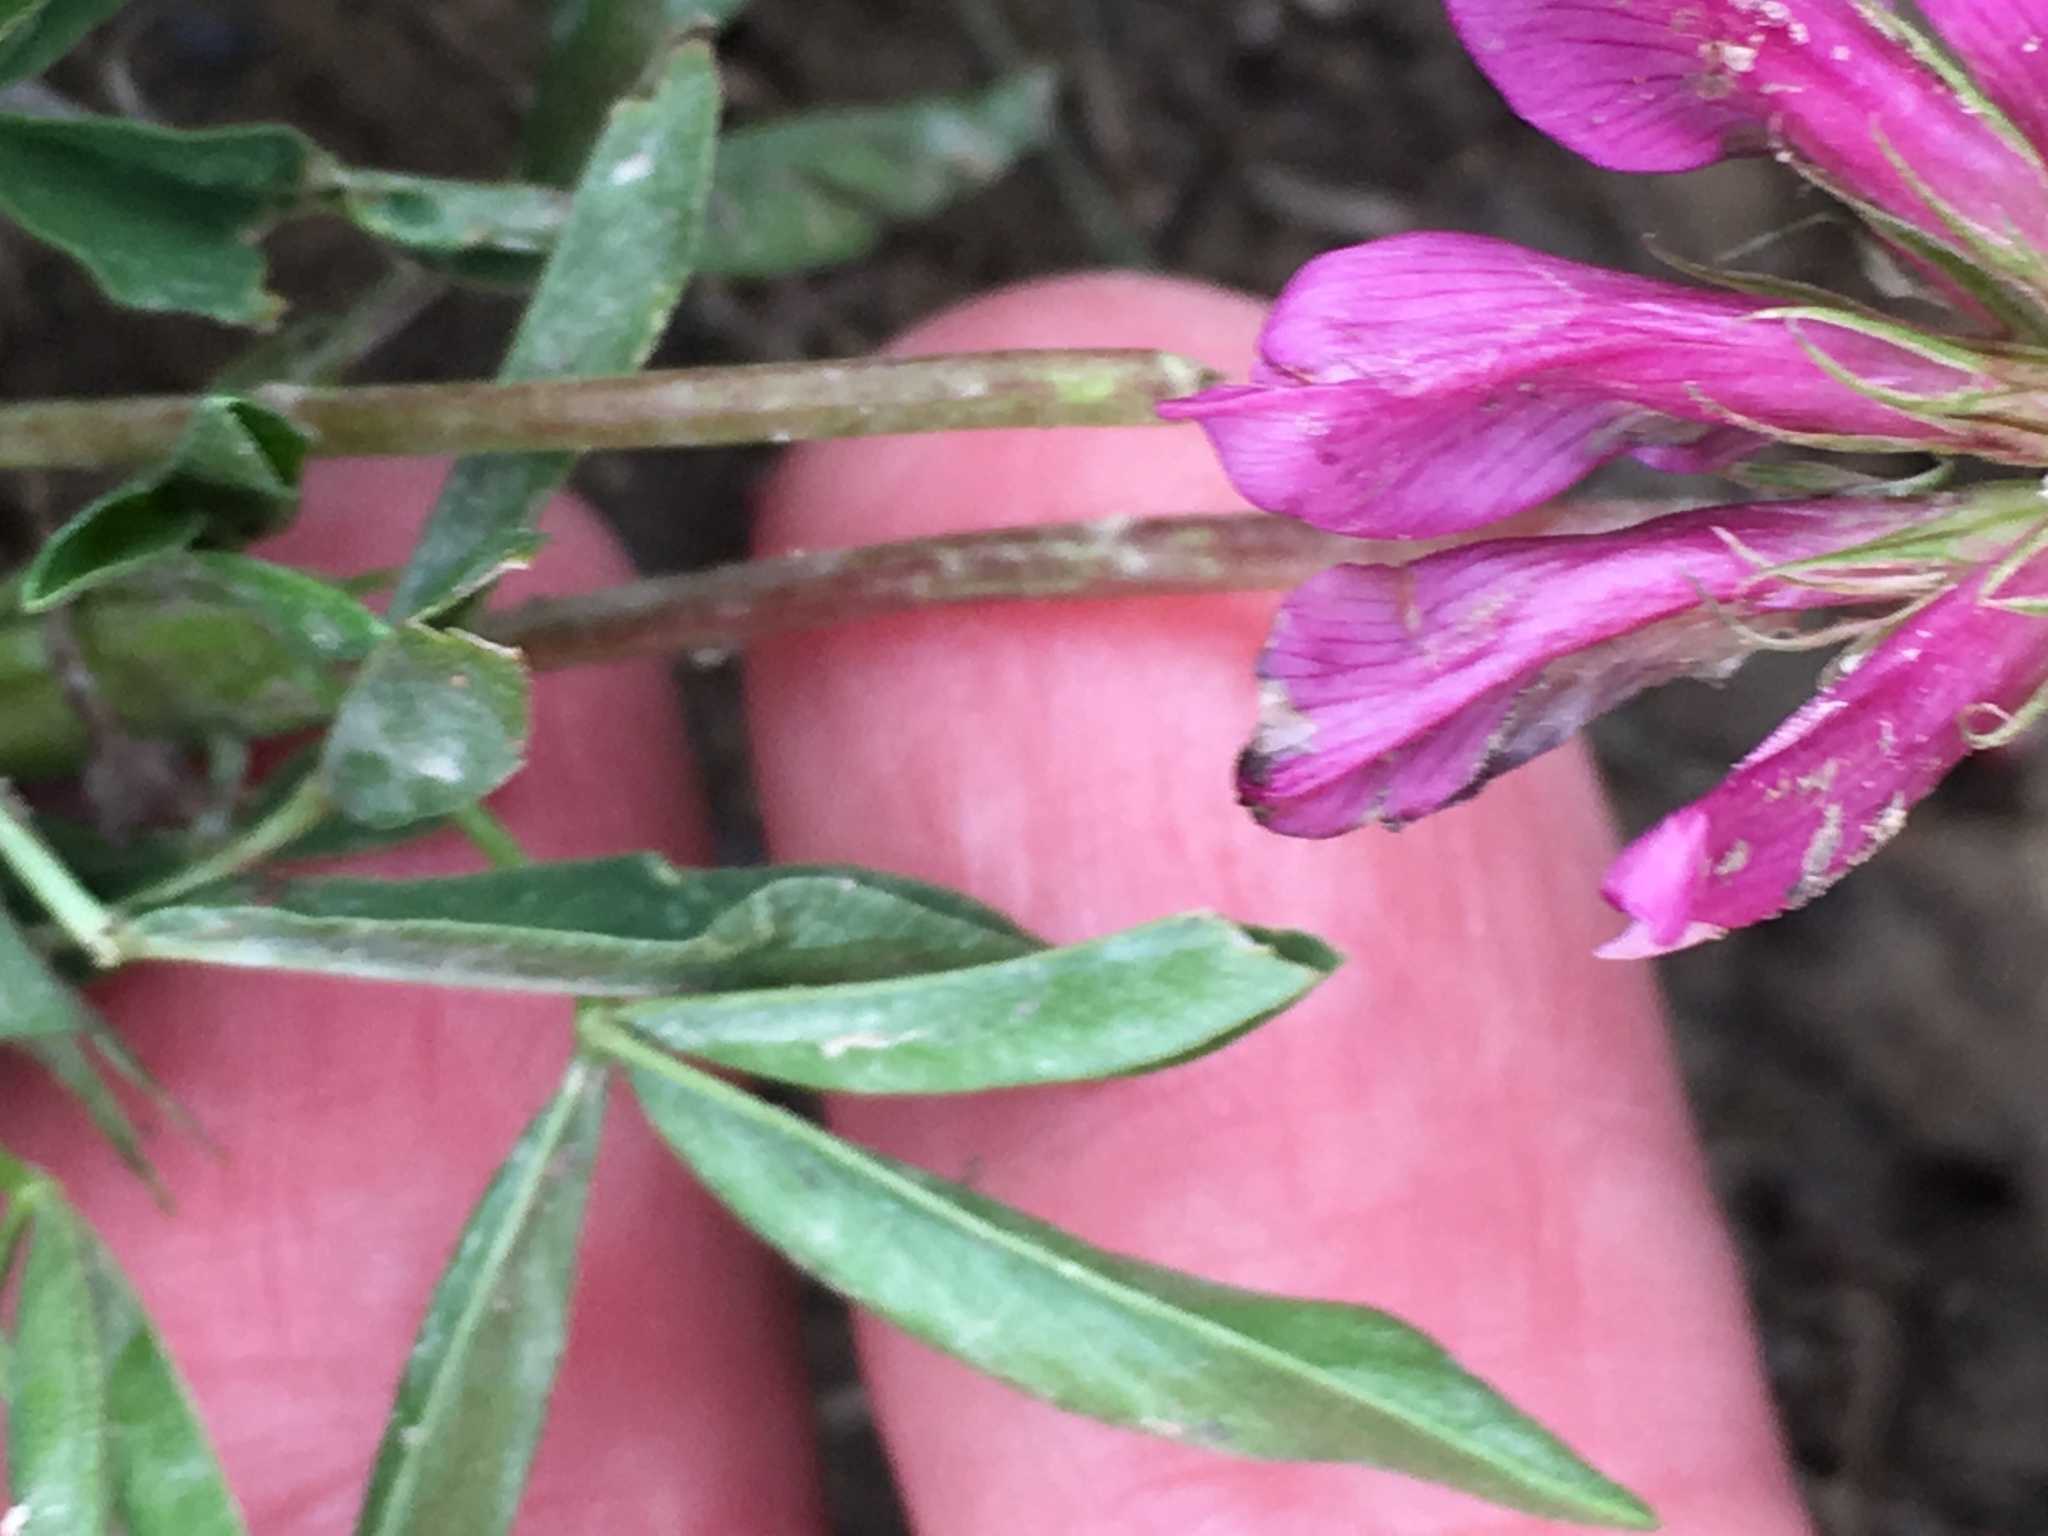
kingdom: Plantae
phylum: Tracheophyta
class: Magnoliopsida
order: Fabales
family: Fabaceae
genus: Trifolium
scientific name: Trifolium alpinum
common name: Alpine clover
